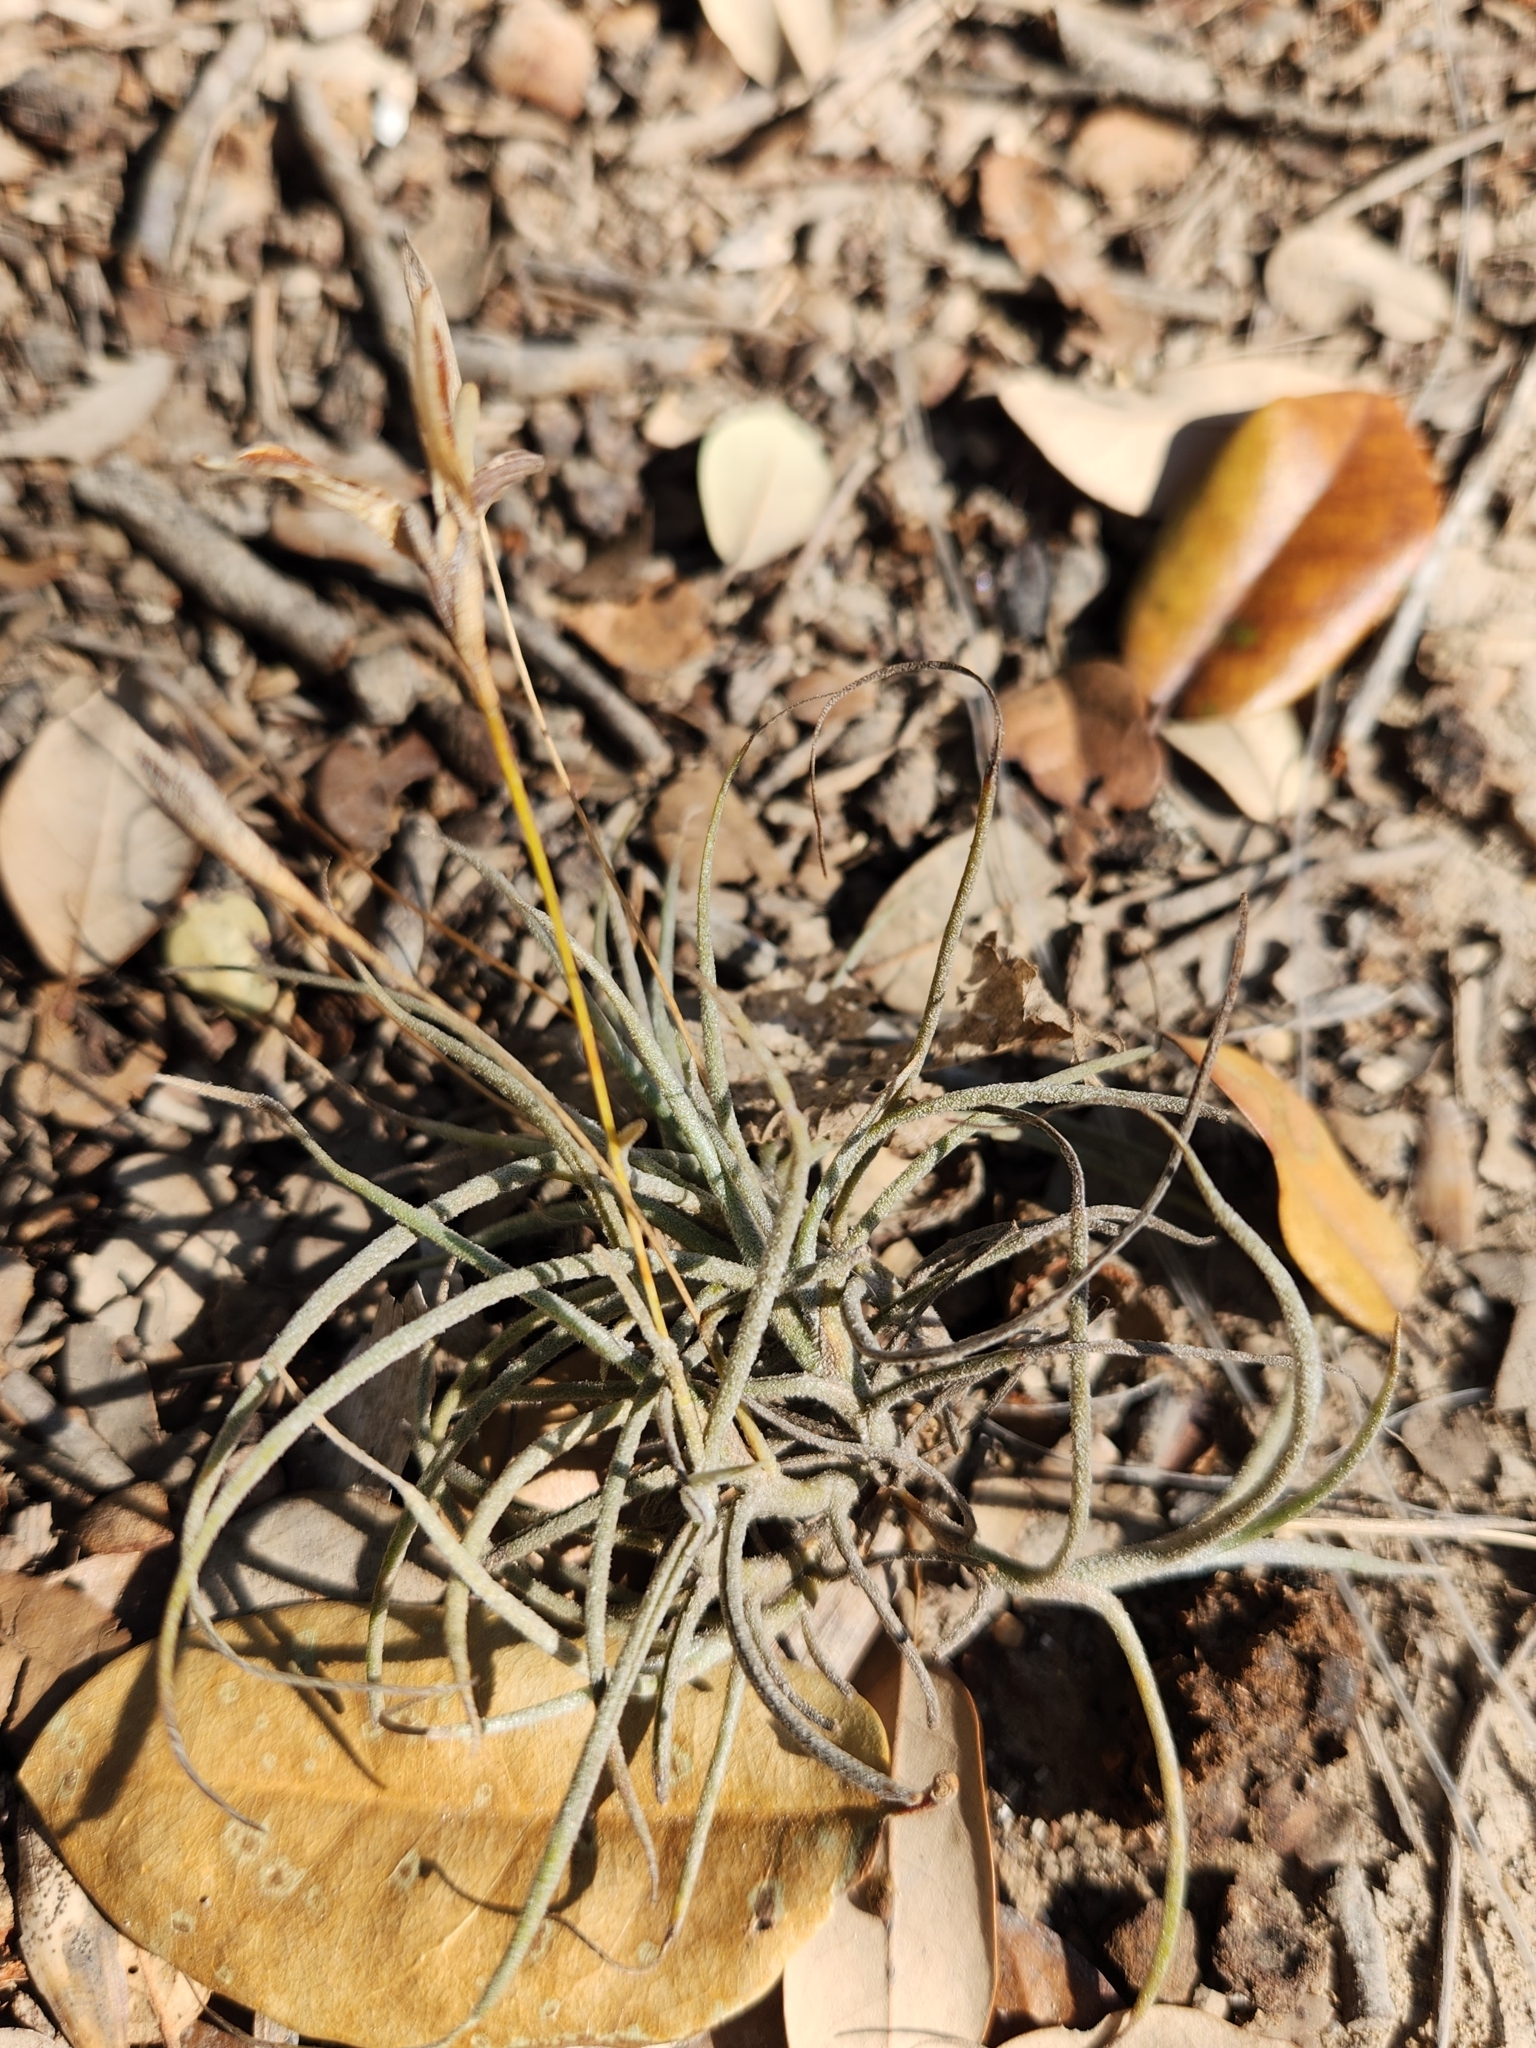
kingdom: Plantae
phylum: Tracheophyta
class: Liliopsida
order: Poales
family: Bromeliaceae
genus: Tillandsia
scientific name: Tillandsia recurvata
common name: Small ballmoss
